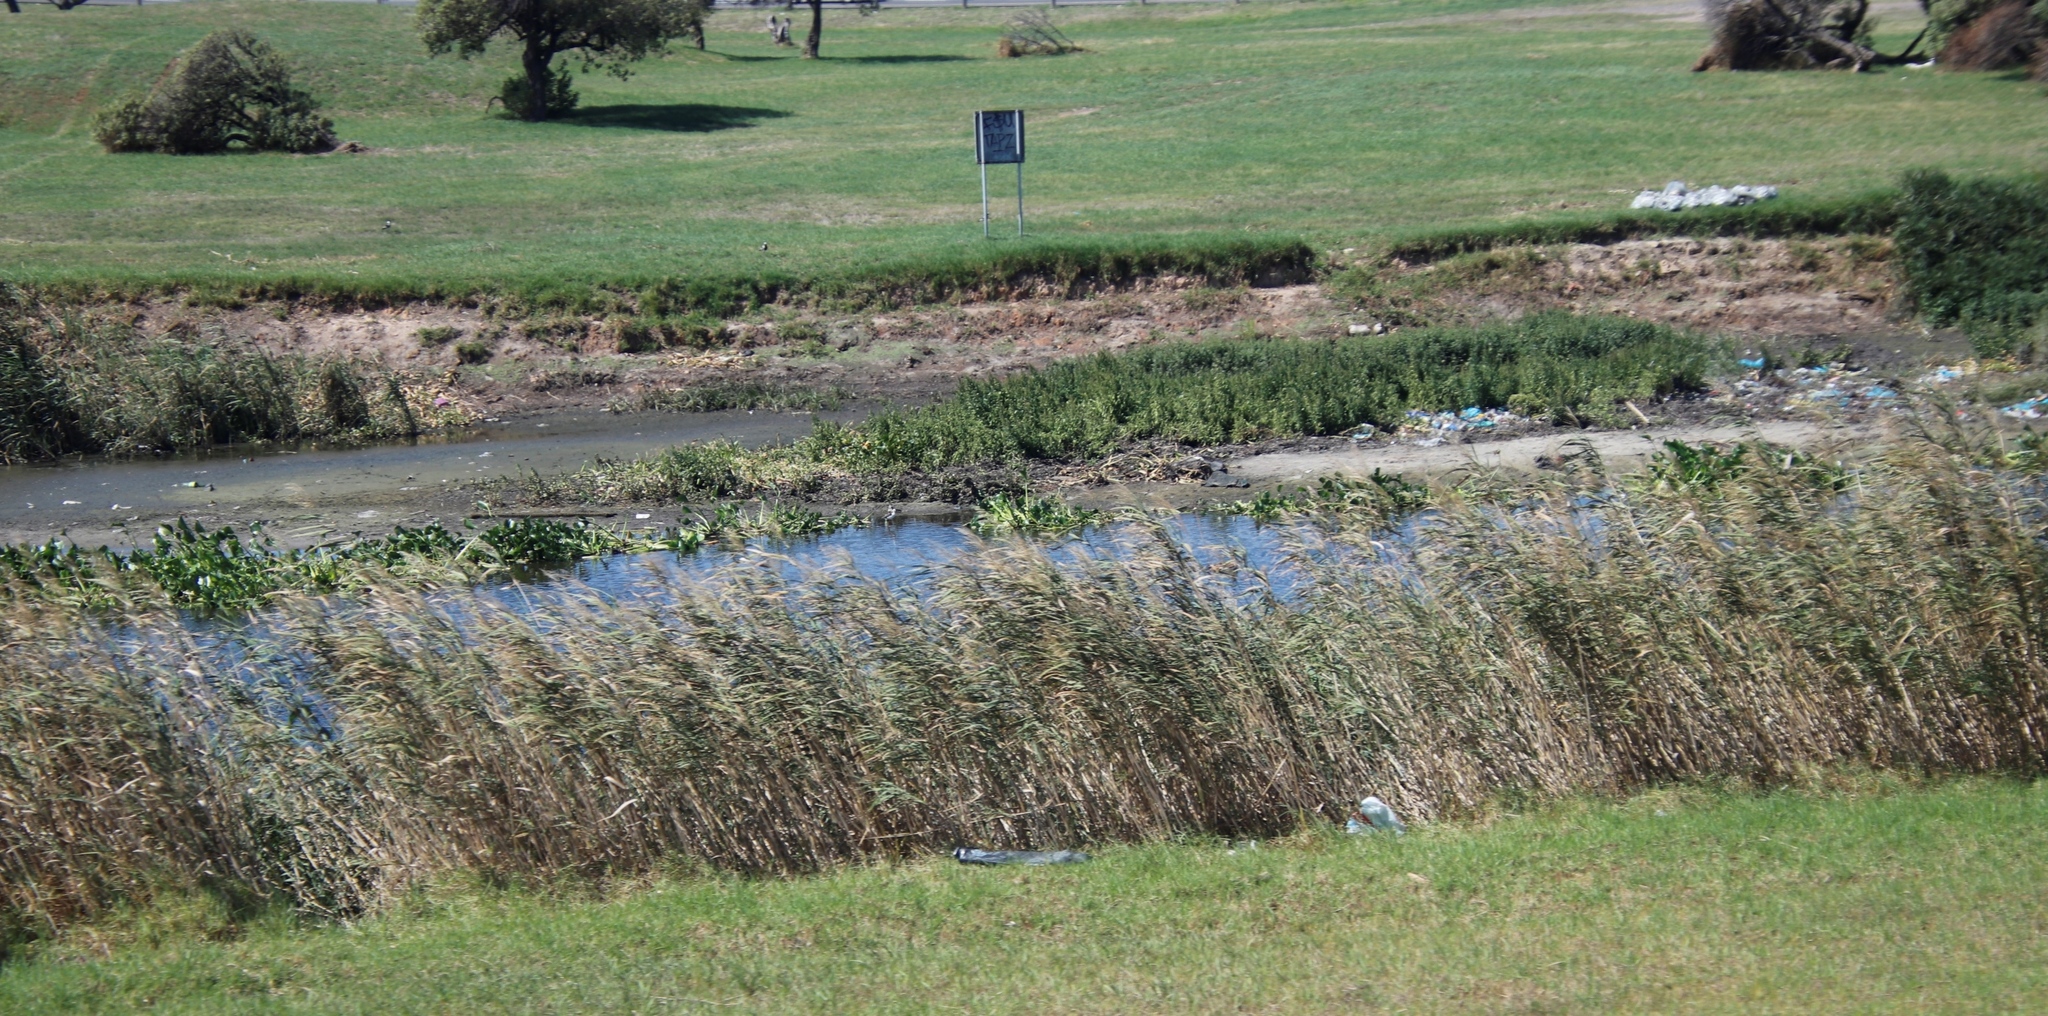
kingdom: Plantae
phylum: Tracheophyta
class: Liliopsida
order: Poales
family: Poaceae
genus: Phragmites
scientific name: Phragmites australis
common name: Common reed
